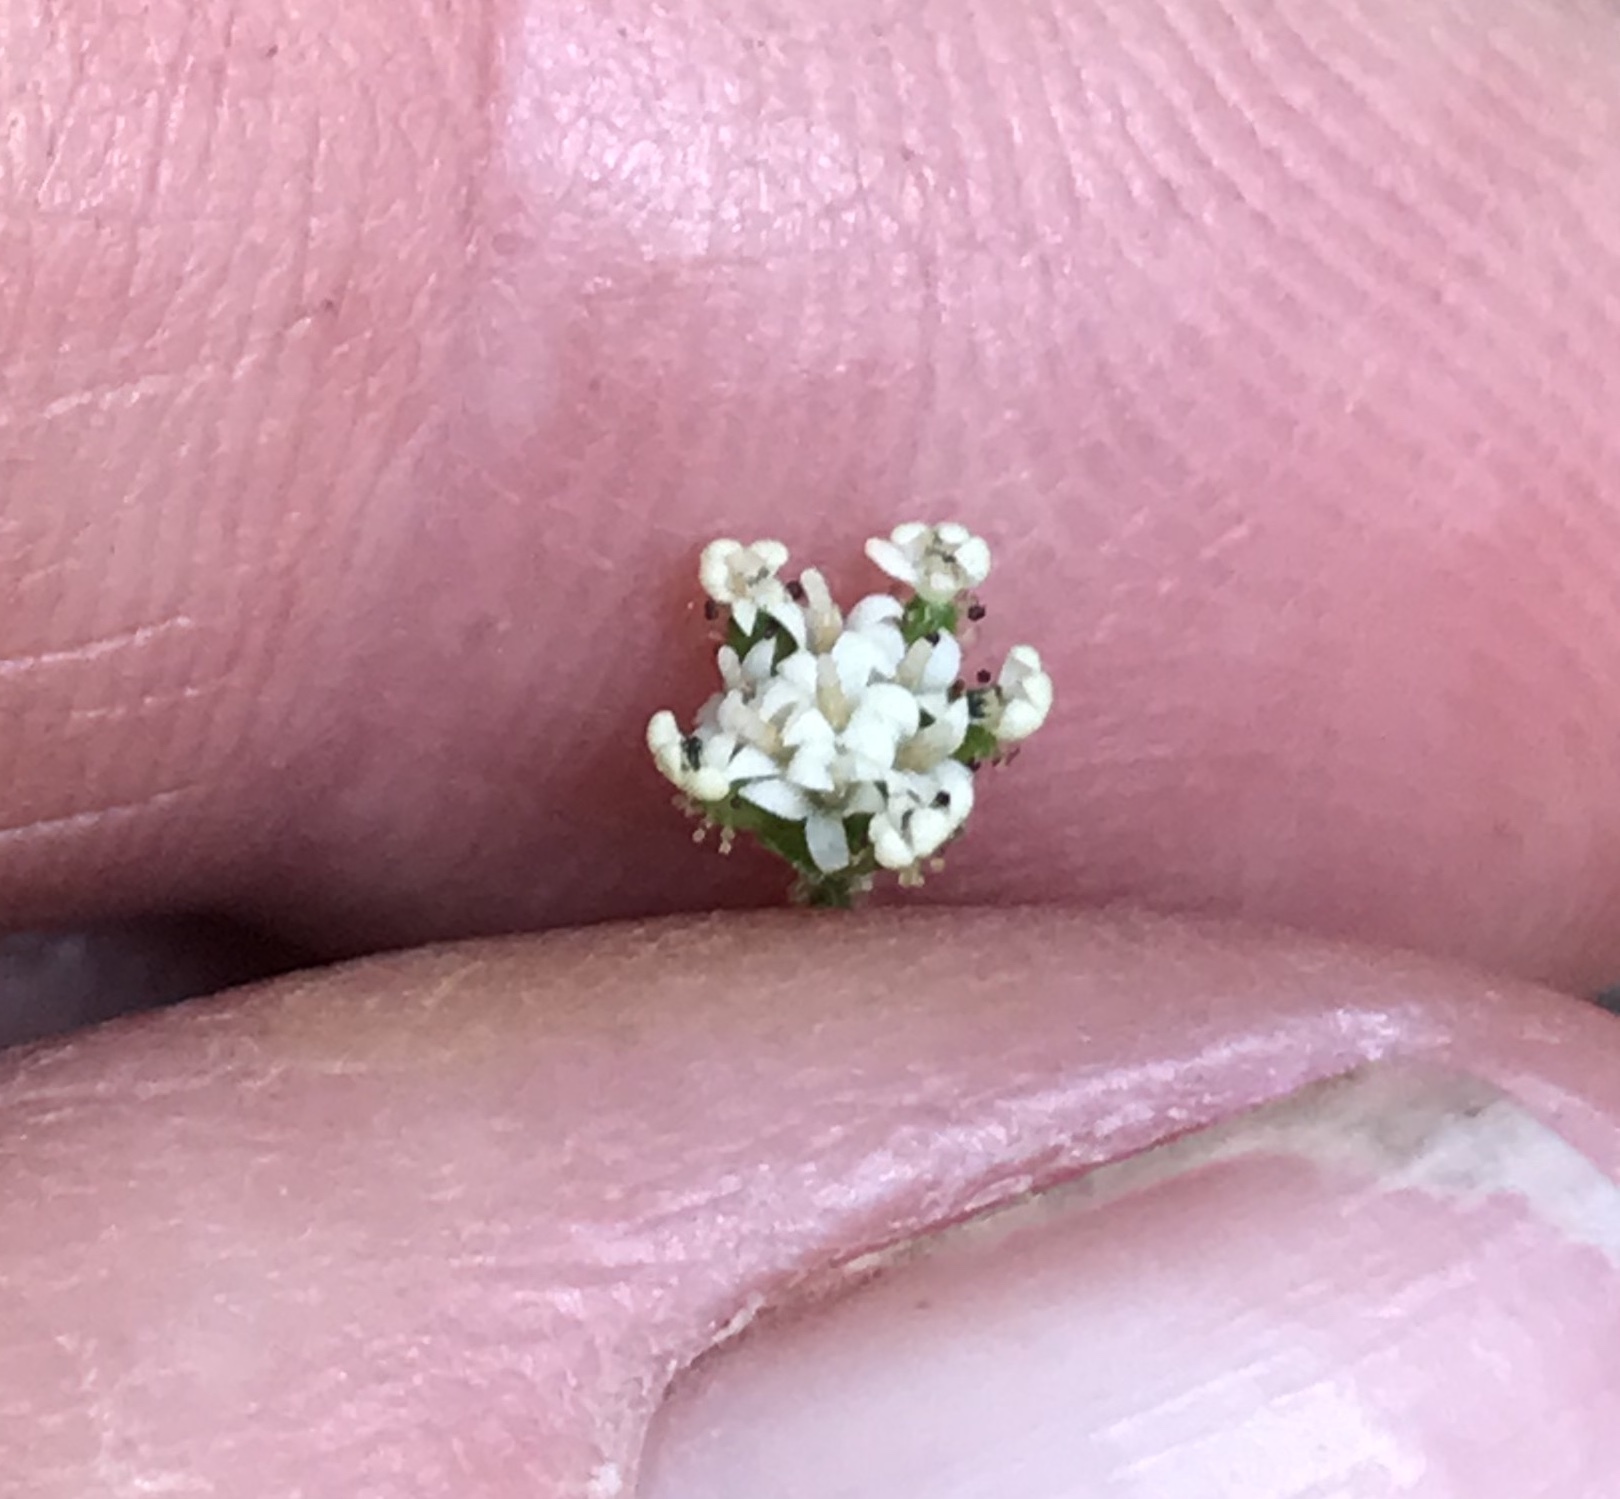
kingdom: Plantae
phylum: Tracheophyta
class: Magnoliopsida
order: Asterales
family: Asteraceae
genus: Adenocaulon
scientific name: Adenocaulon bicolor
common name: Trailplant
